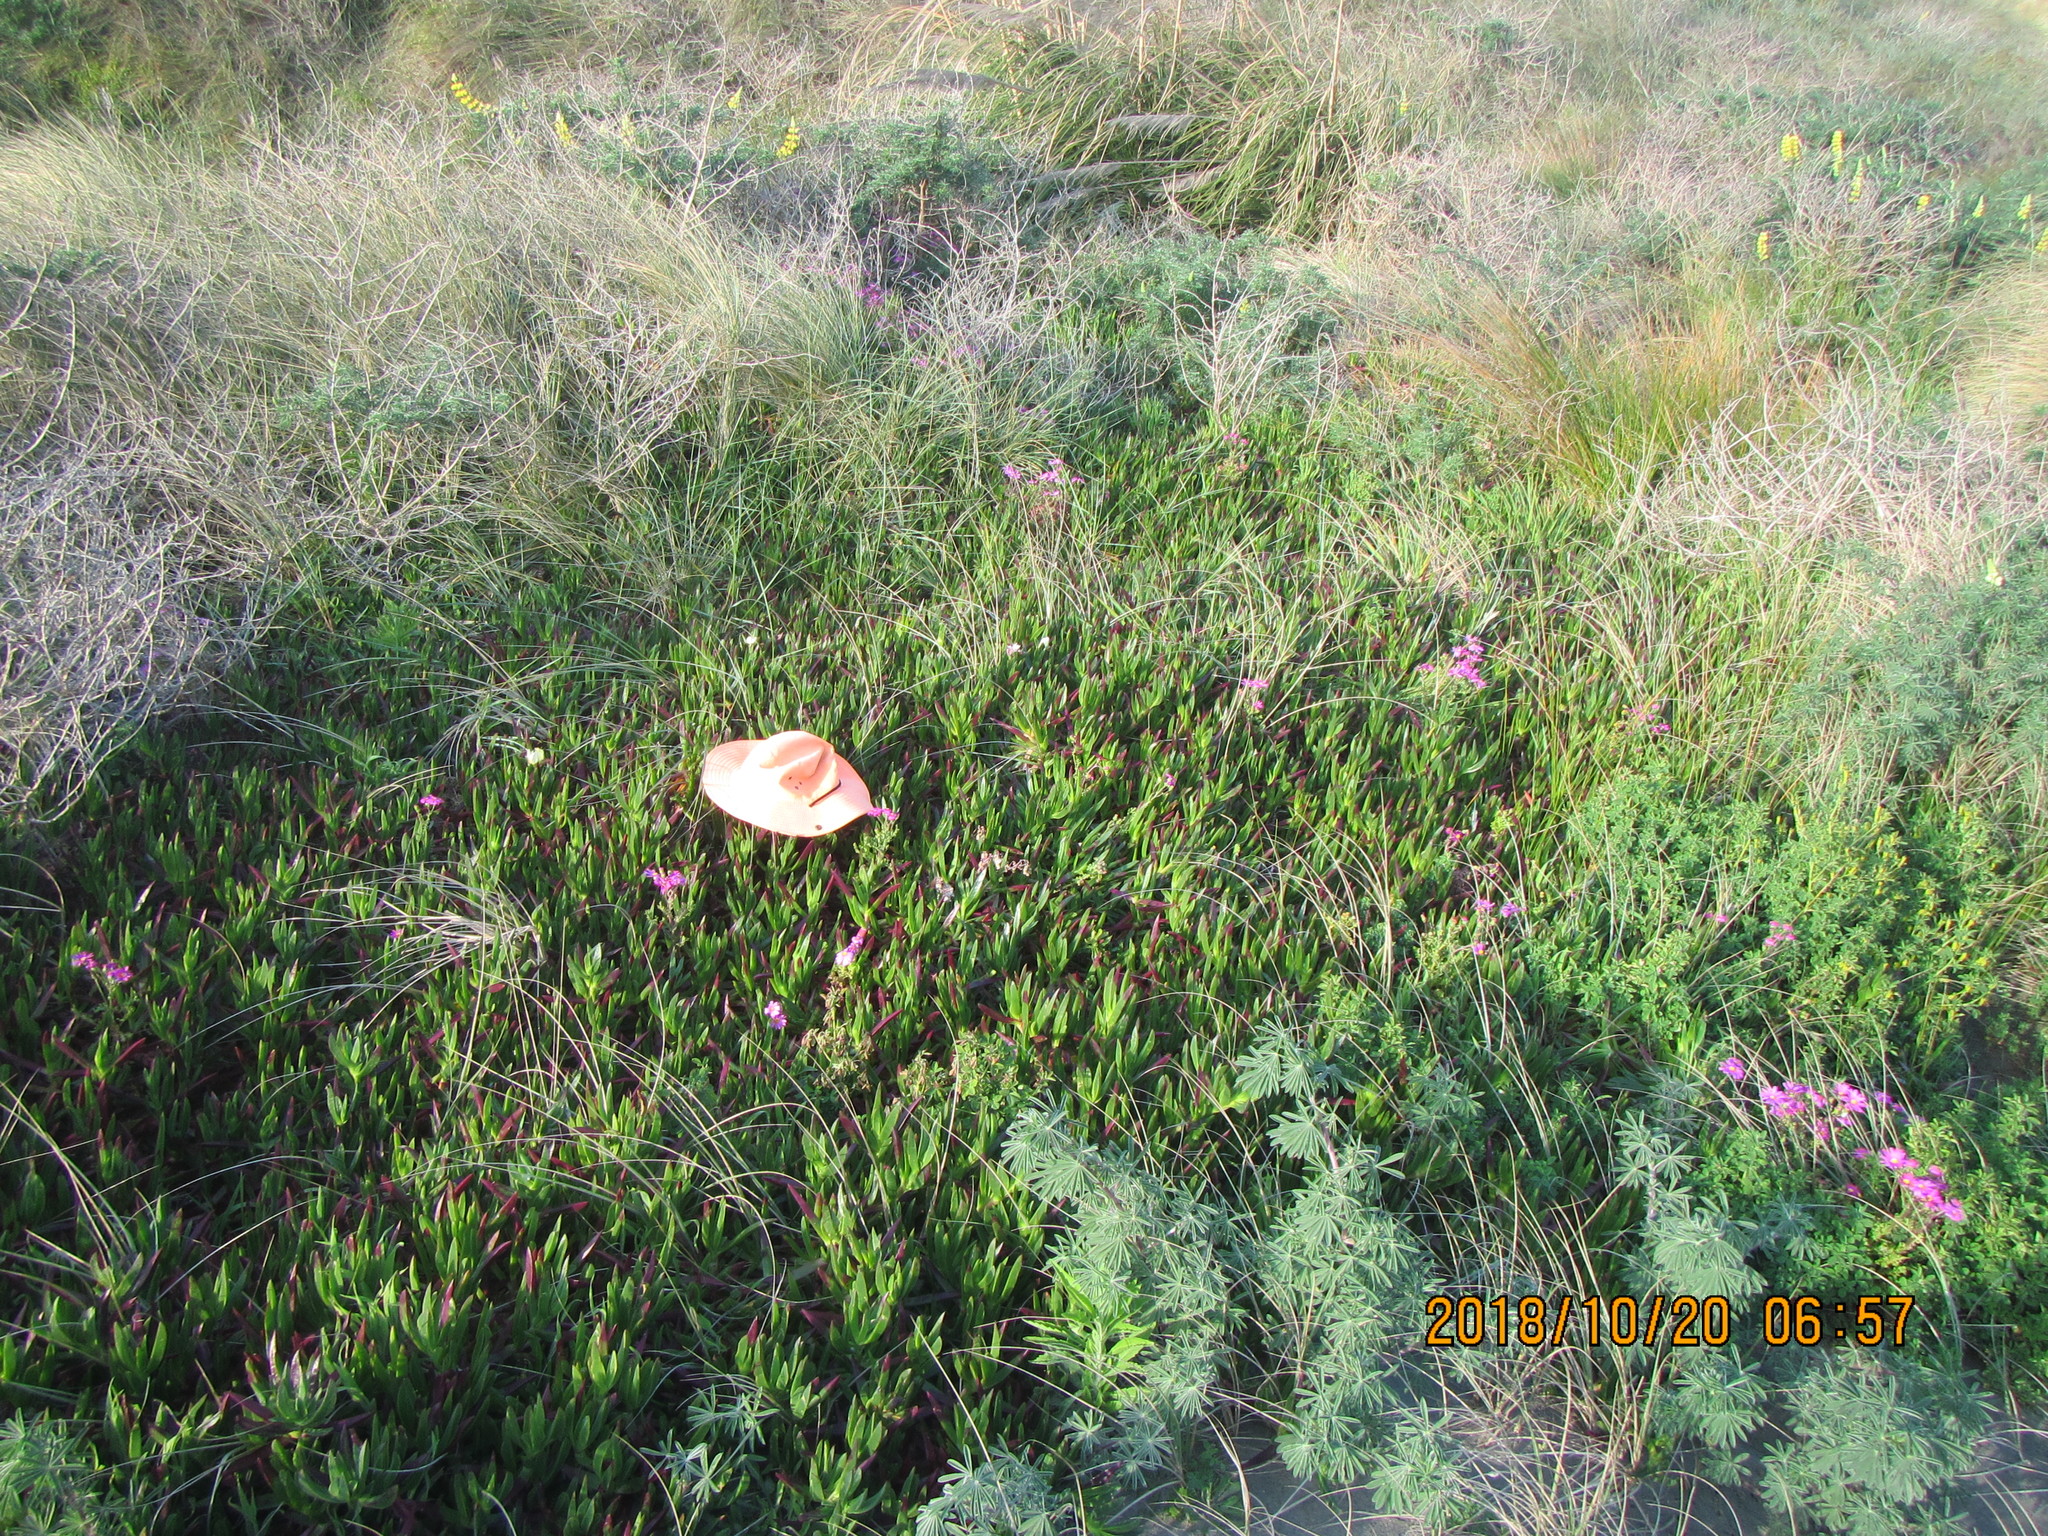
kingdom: Plantae
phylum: Tracheophyta
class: Magnoliopsida
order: Caryophyllales
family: Aizoaceae
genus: Carpobrotus
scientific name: Carpobrotus edulis
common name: Hottentot-fig
